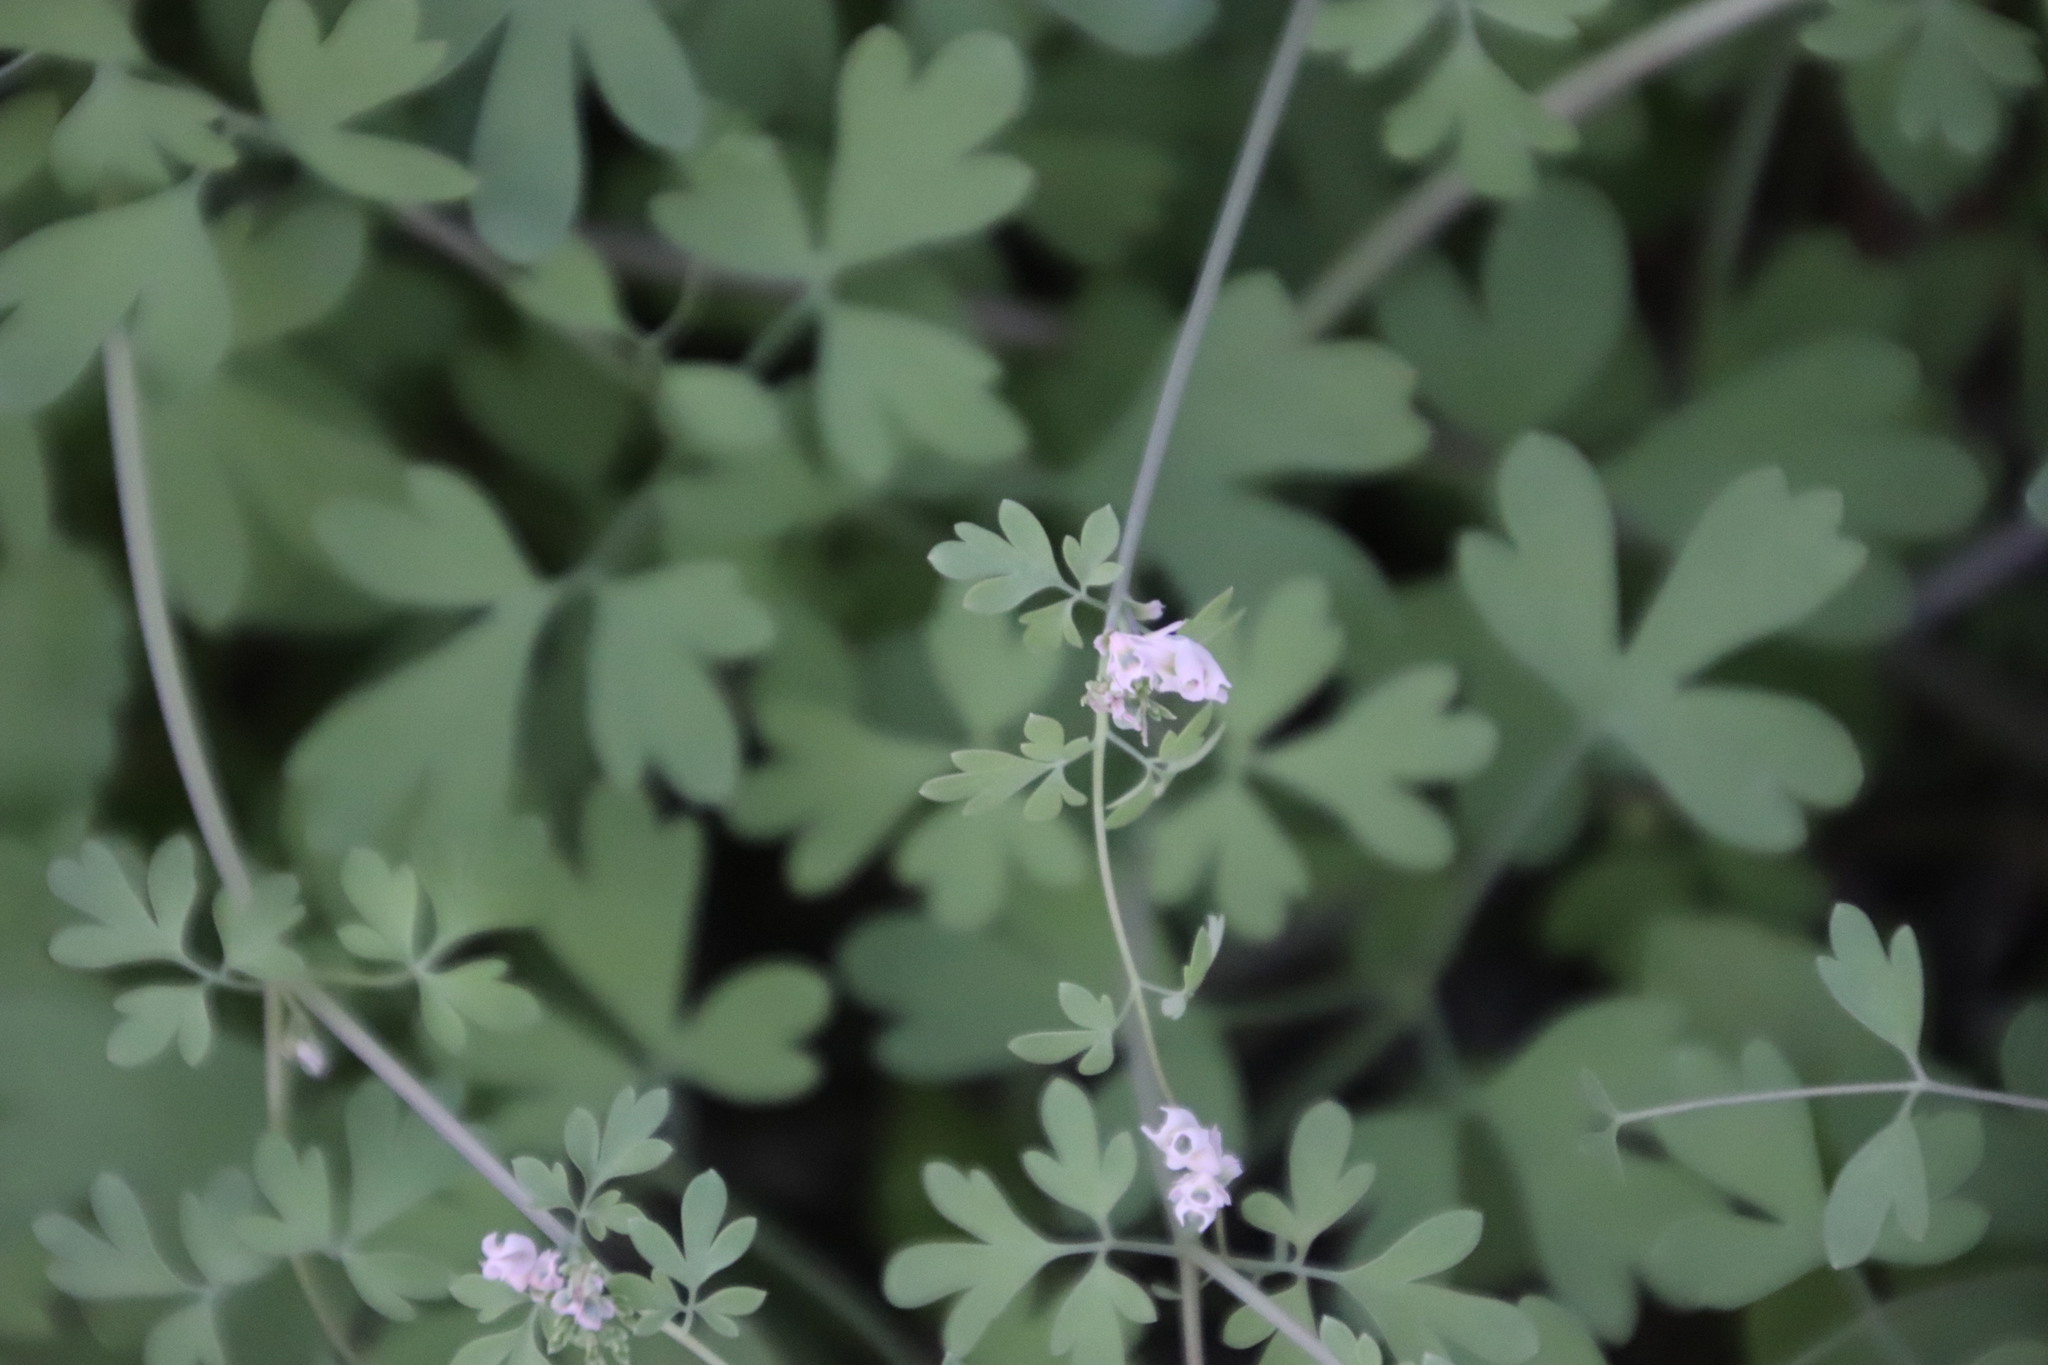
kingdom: Plantae
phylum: Tracheophyta
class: Magnoliopsida
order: Ranunculales
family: Papaveraceae
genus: Cysticapnos
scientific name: Cysticapnos vesicaria
